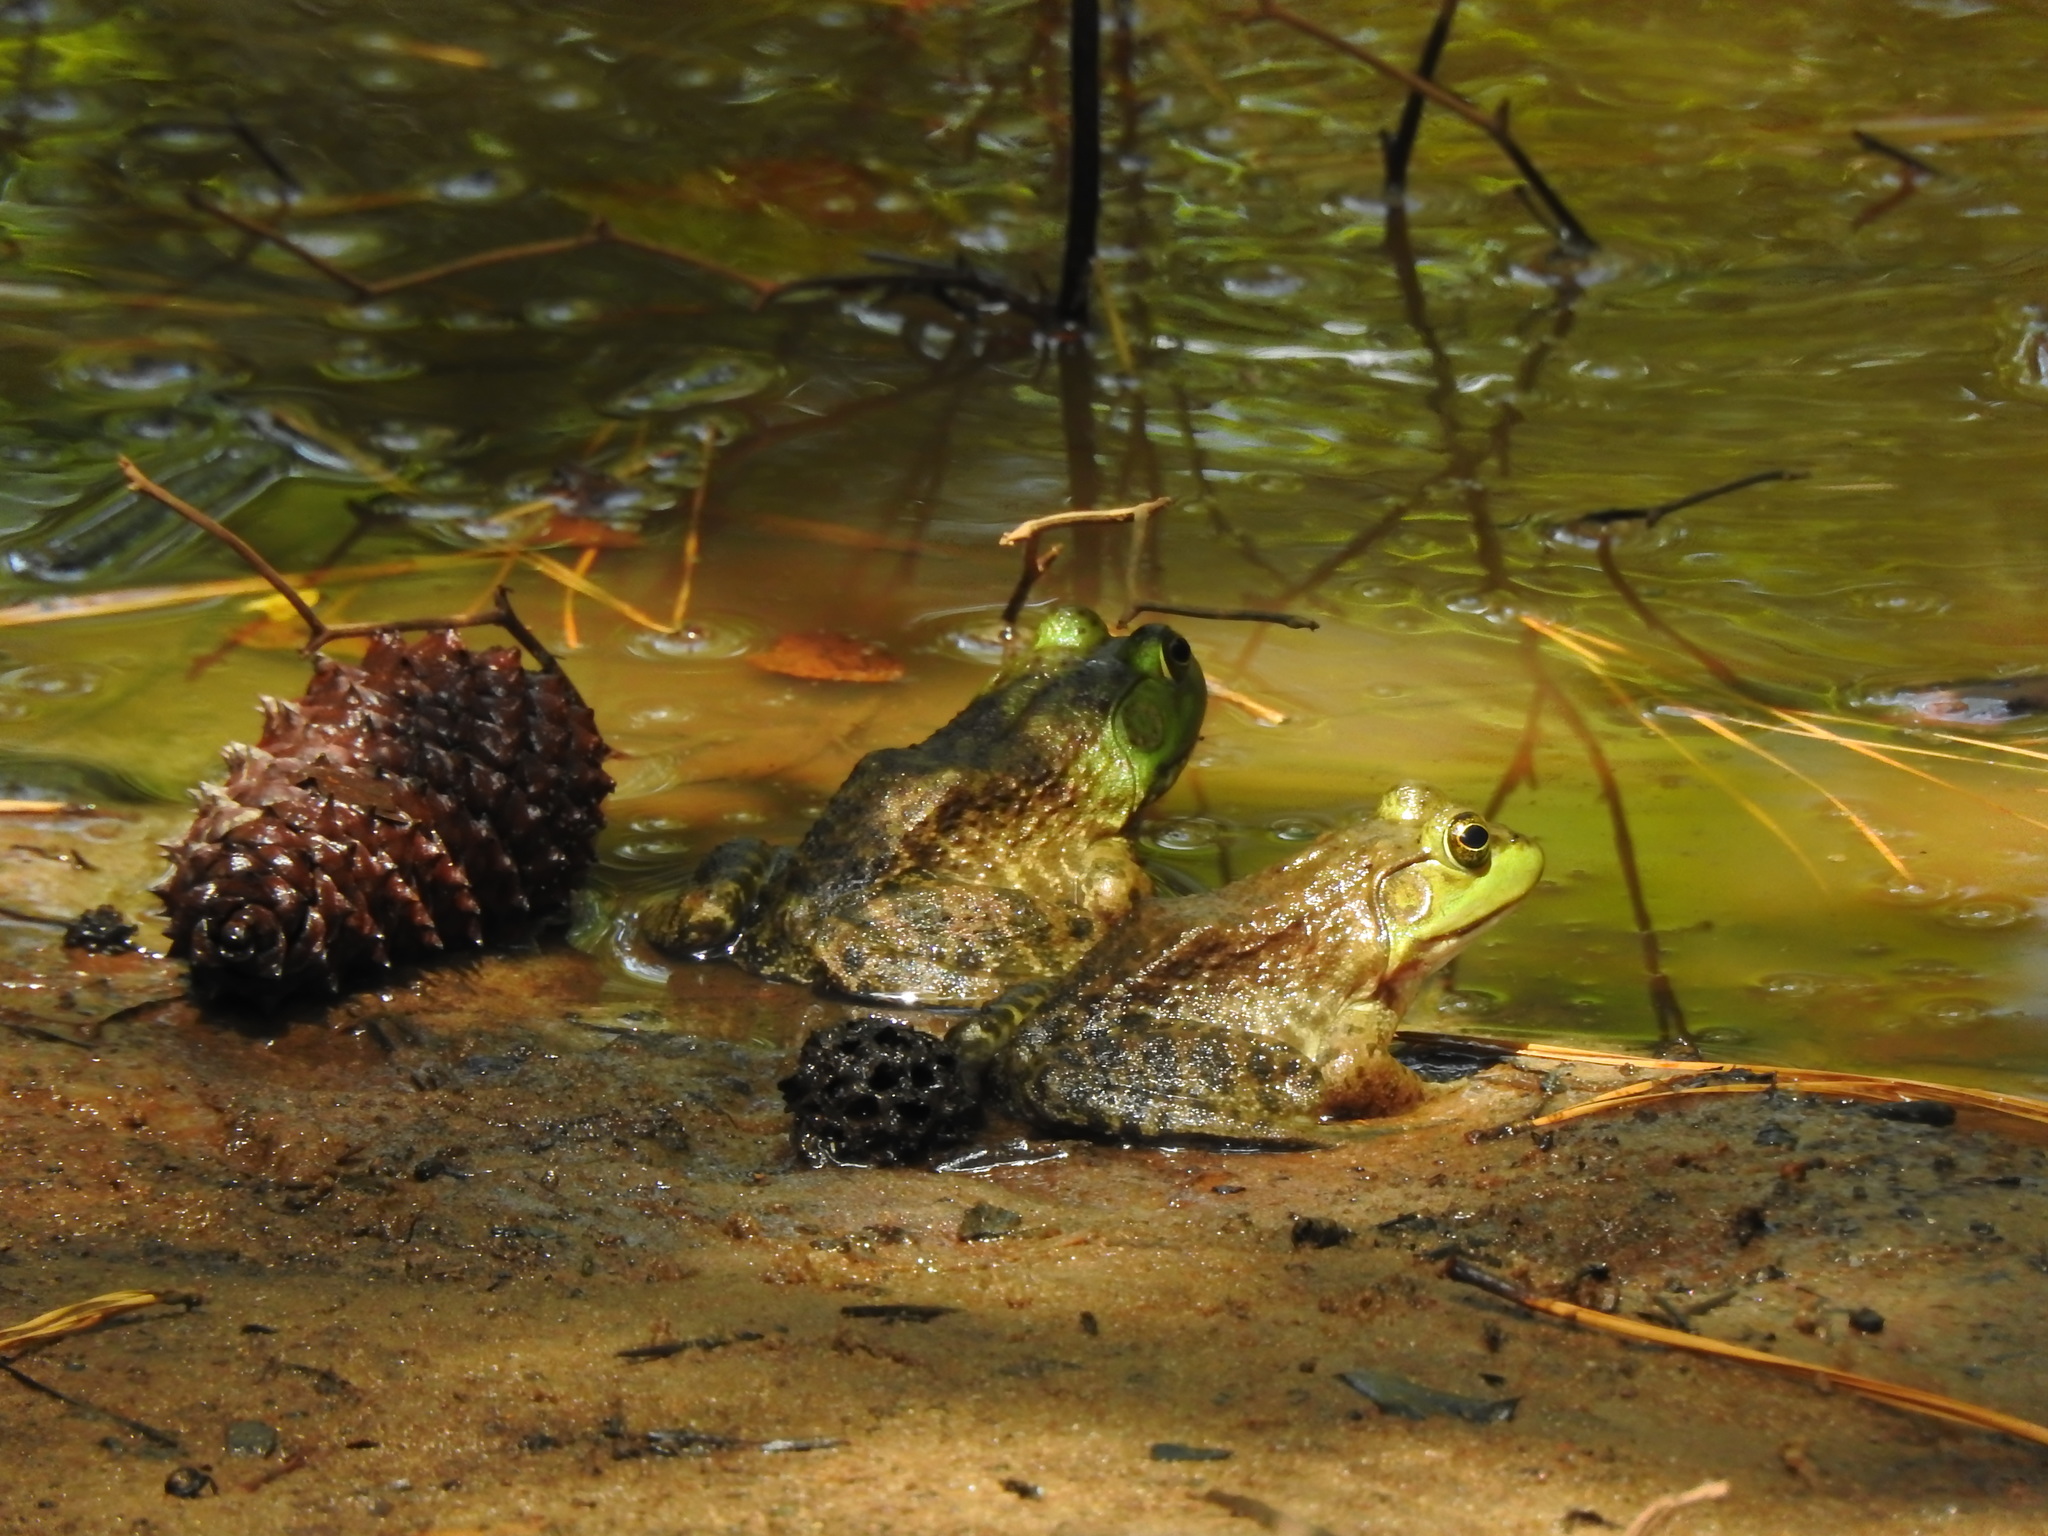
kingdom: Animalia
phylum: Chordata
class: Amphibia
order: Anura
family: Ranidae
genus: Lithobates
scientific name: Lithobates catesbeianus
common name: American bullfrog
